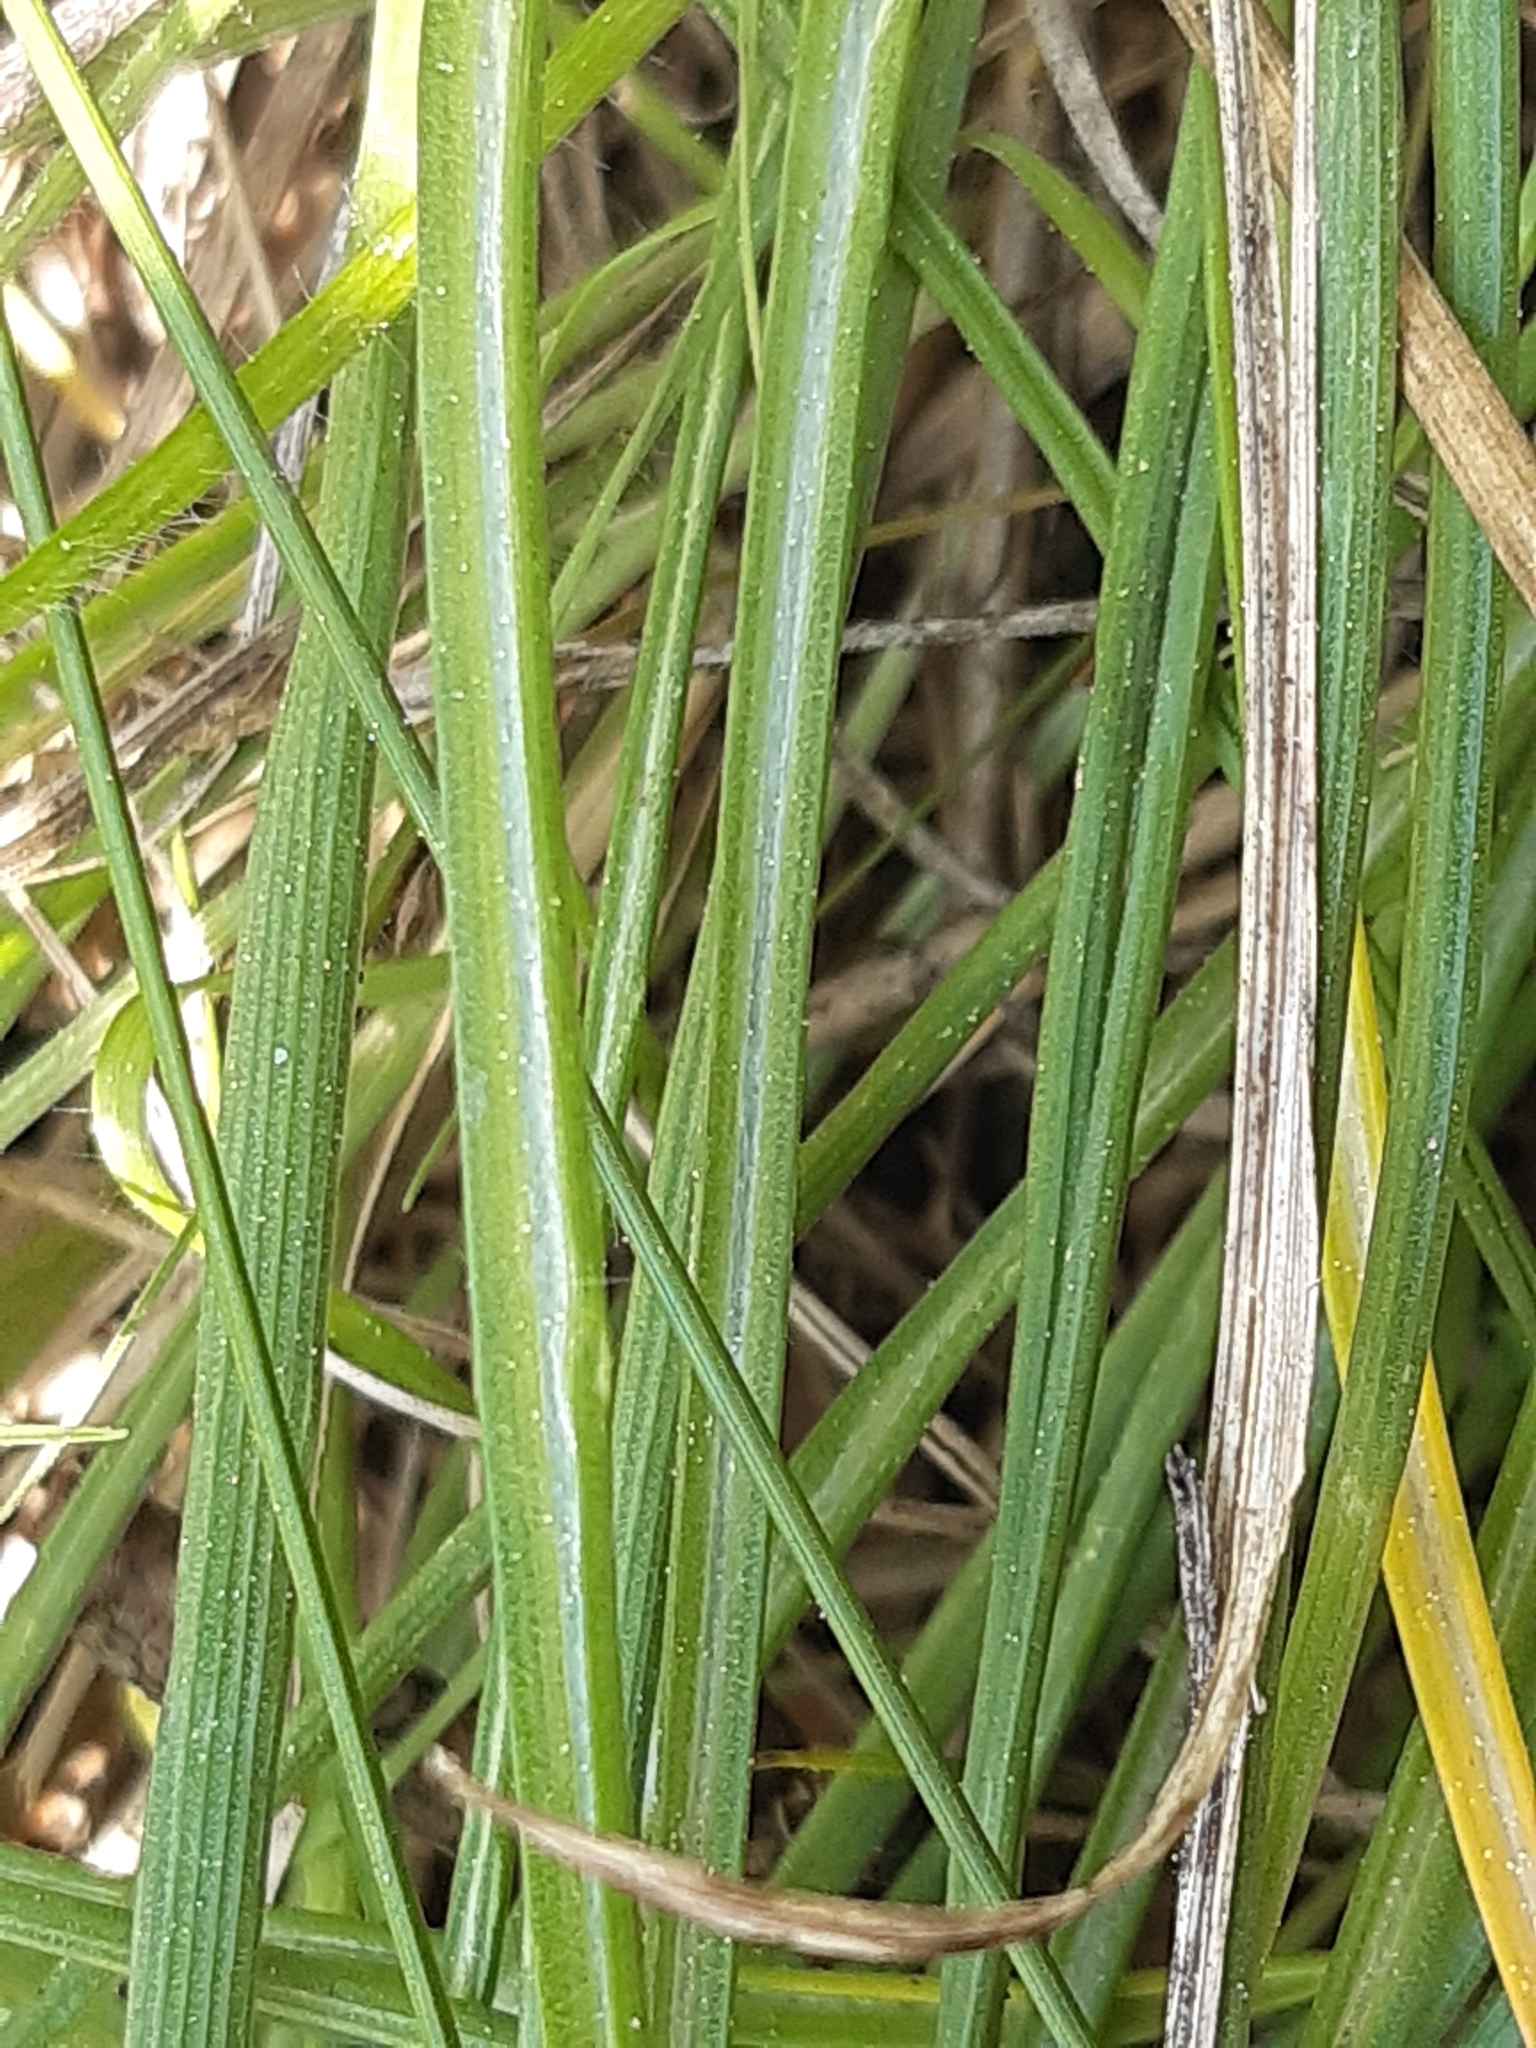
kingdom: Plantae
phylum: Tracheophyta
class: Liliopsida
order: Asparagales
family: Asparagaceae
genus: Ornithogalum
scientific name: Ornithogalum umbellatum
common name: Garden star-of-bethlehem
